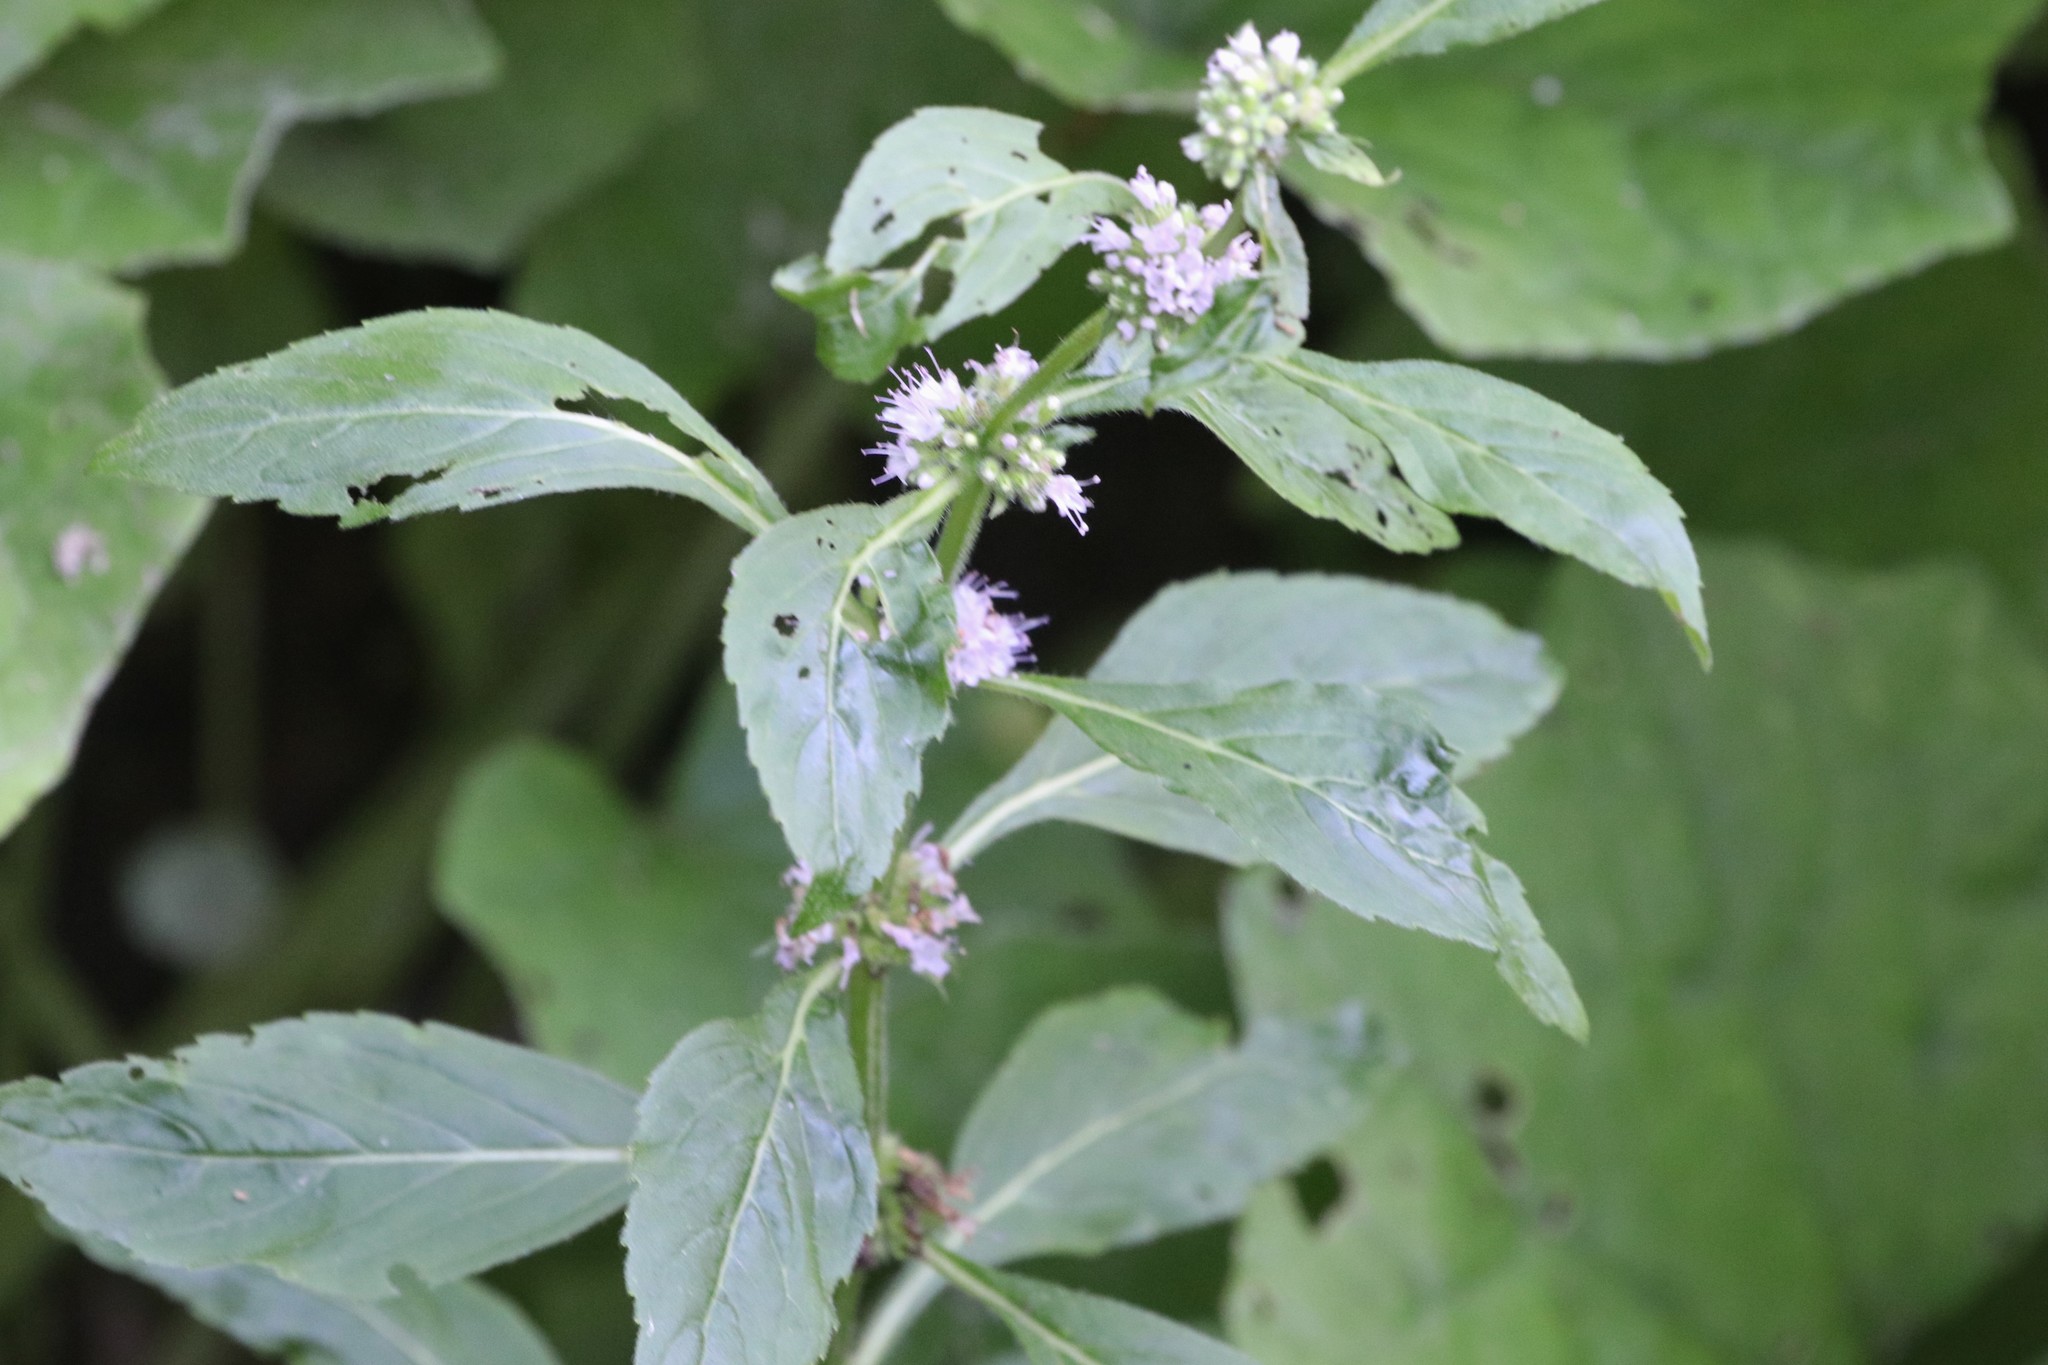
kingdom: Plantae
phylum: Tracheophyta
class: Magnoliopsida
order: Lamiales
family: Lamiaceae
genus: Mentha
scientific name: Mentha canadensis
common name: American corn mint
